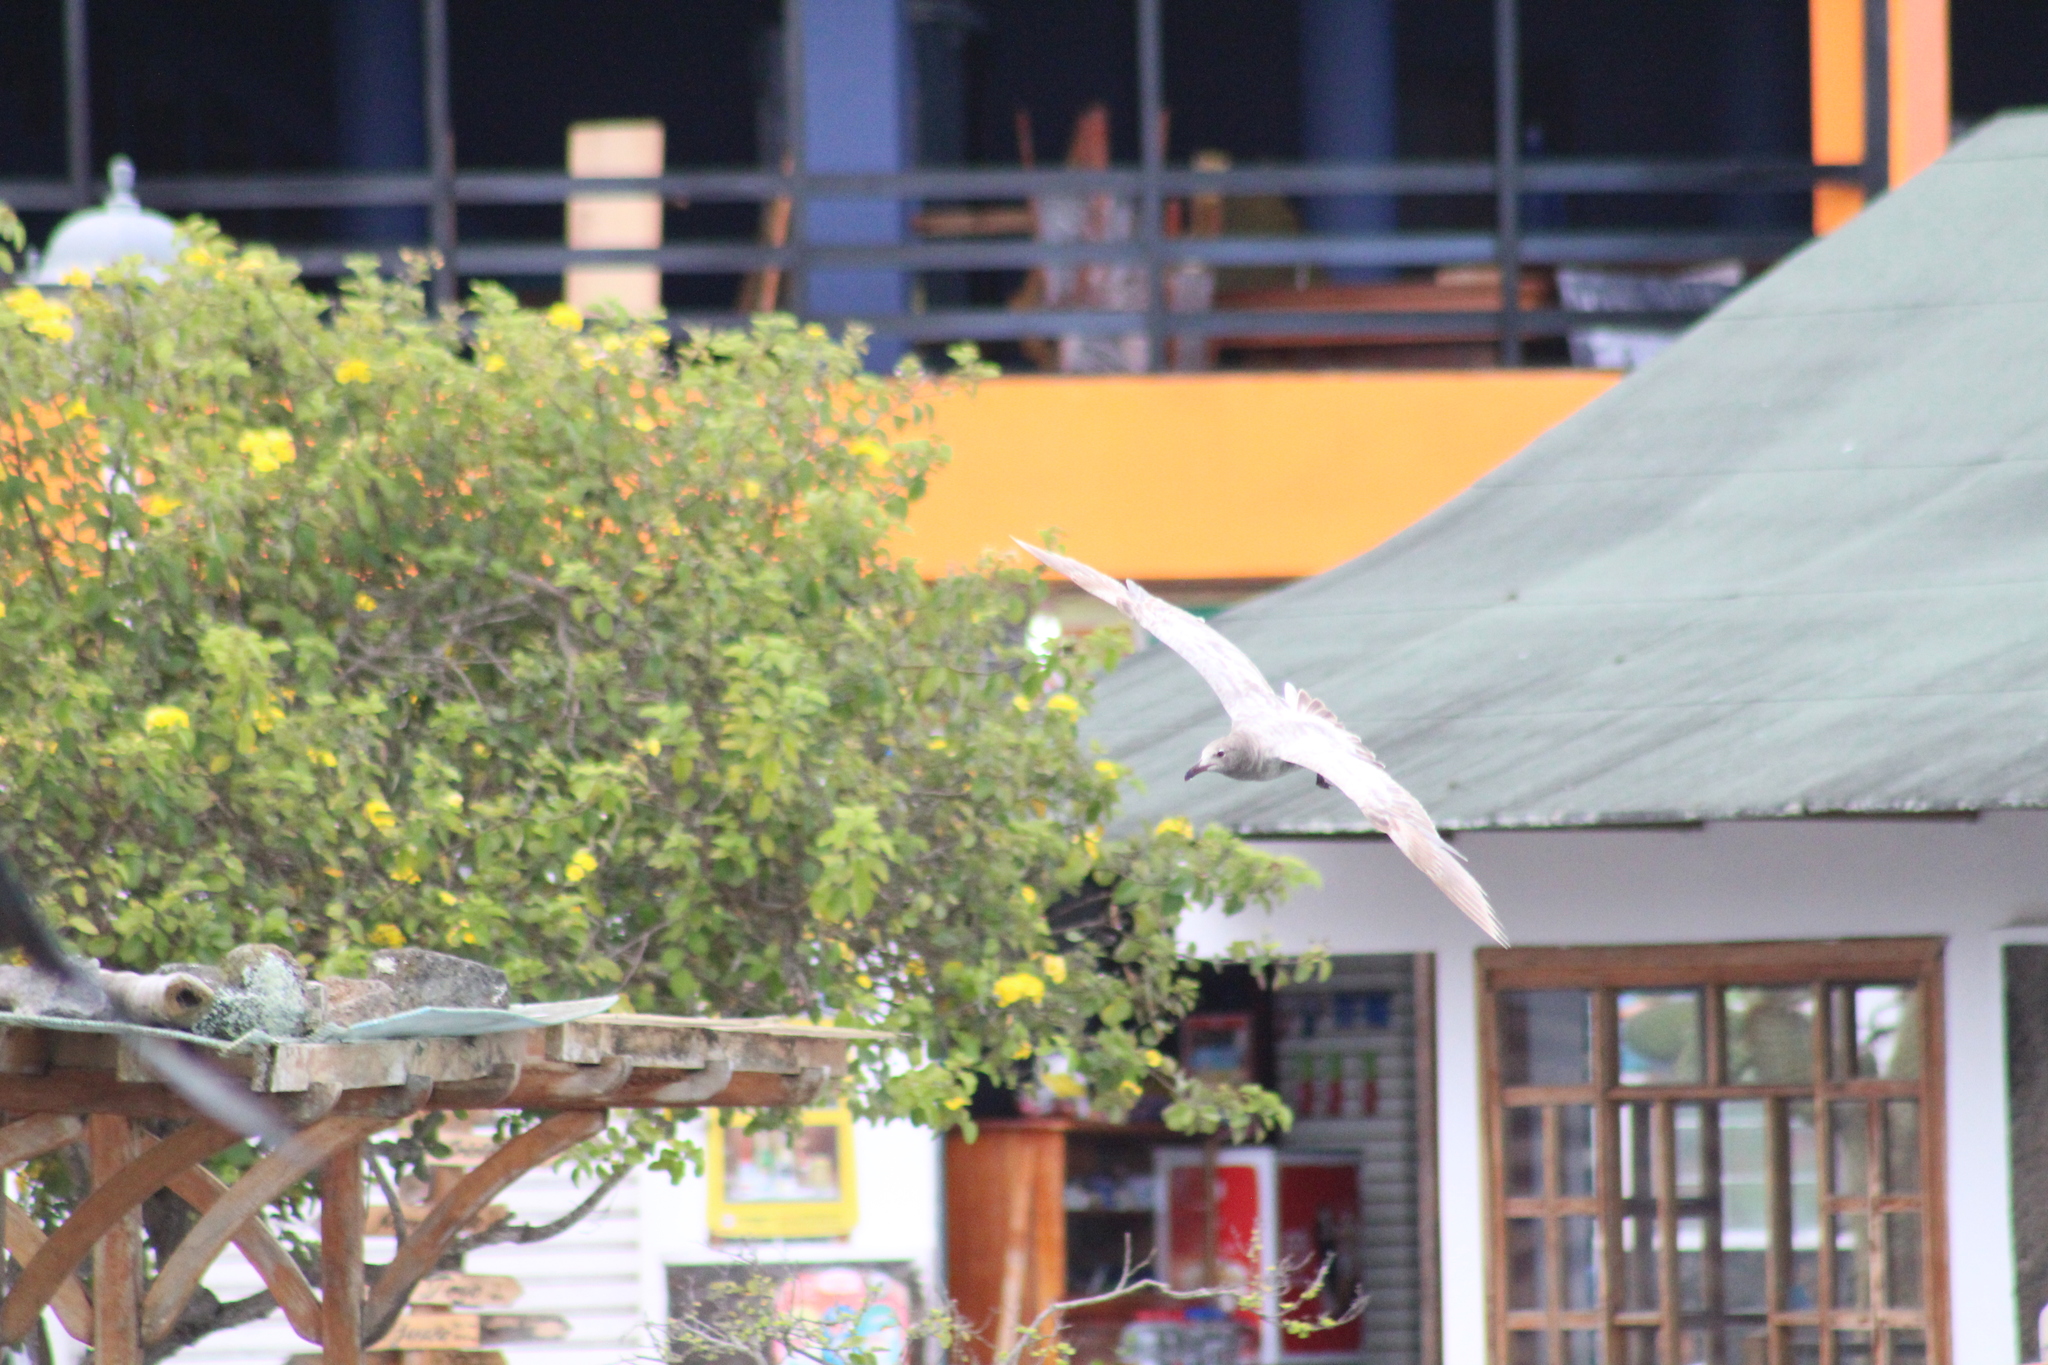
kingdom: Animalia
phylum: Chordata
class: Aves
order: Charadriiformes
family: Laridae
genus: Leucophaeus
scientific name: Leucophaeus fuliginosus
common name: Lava gull
